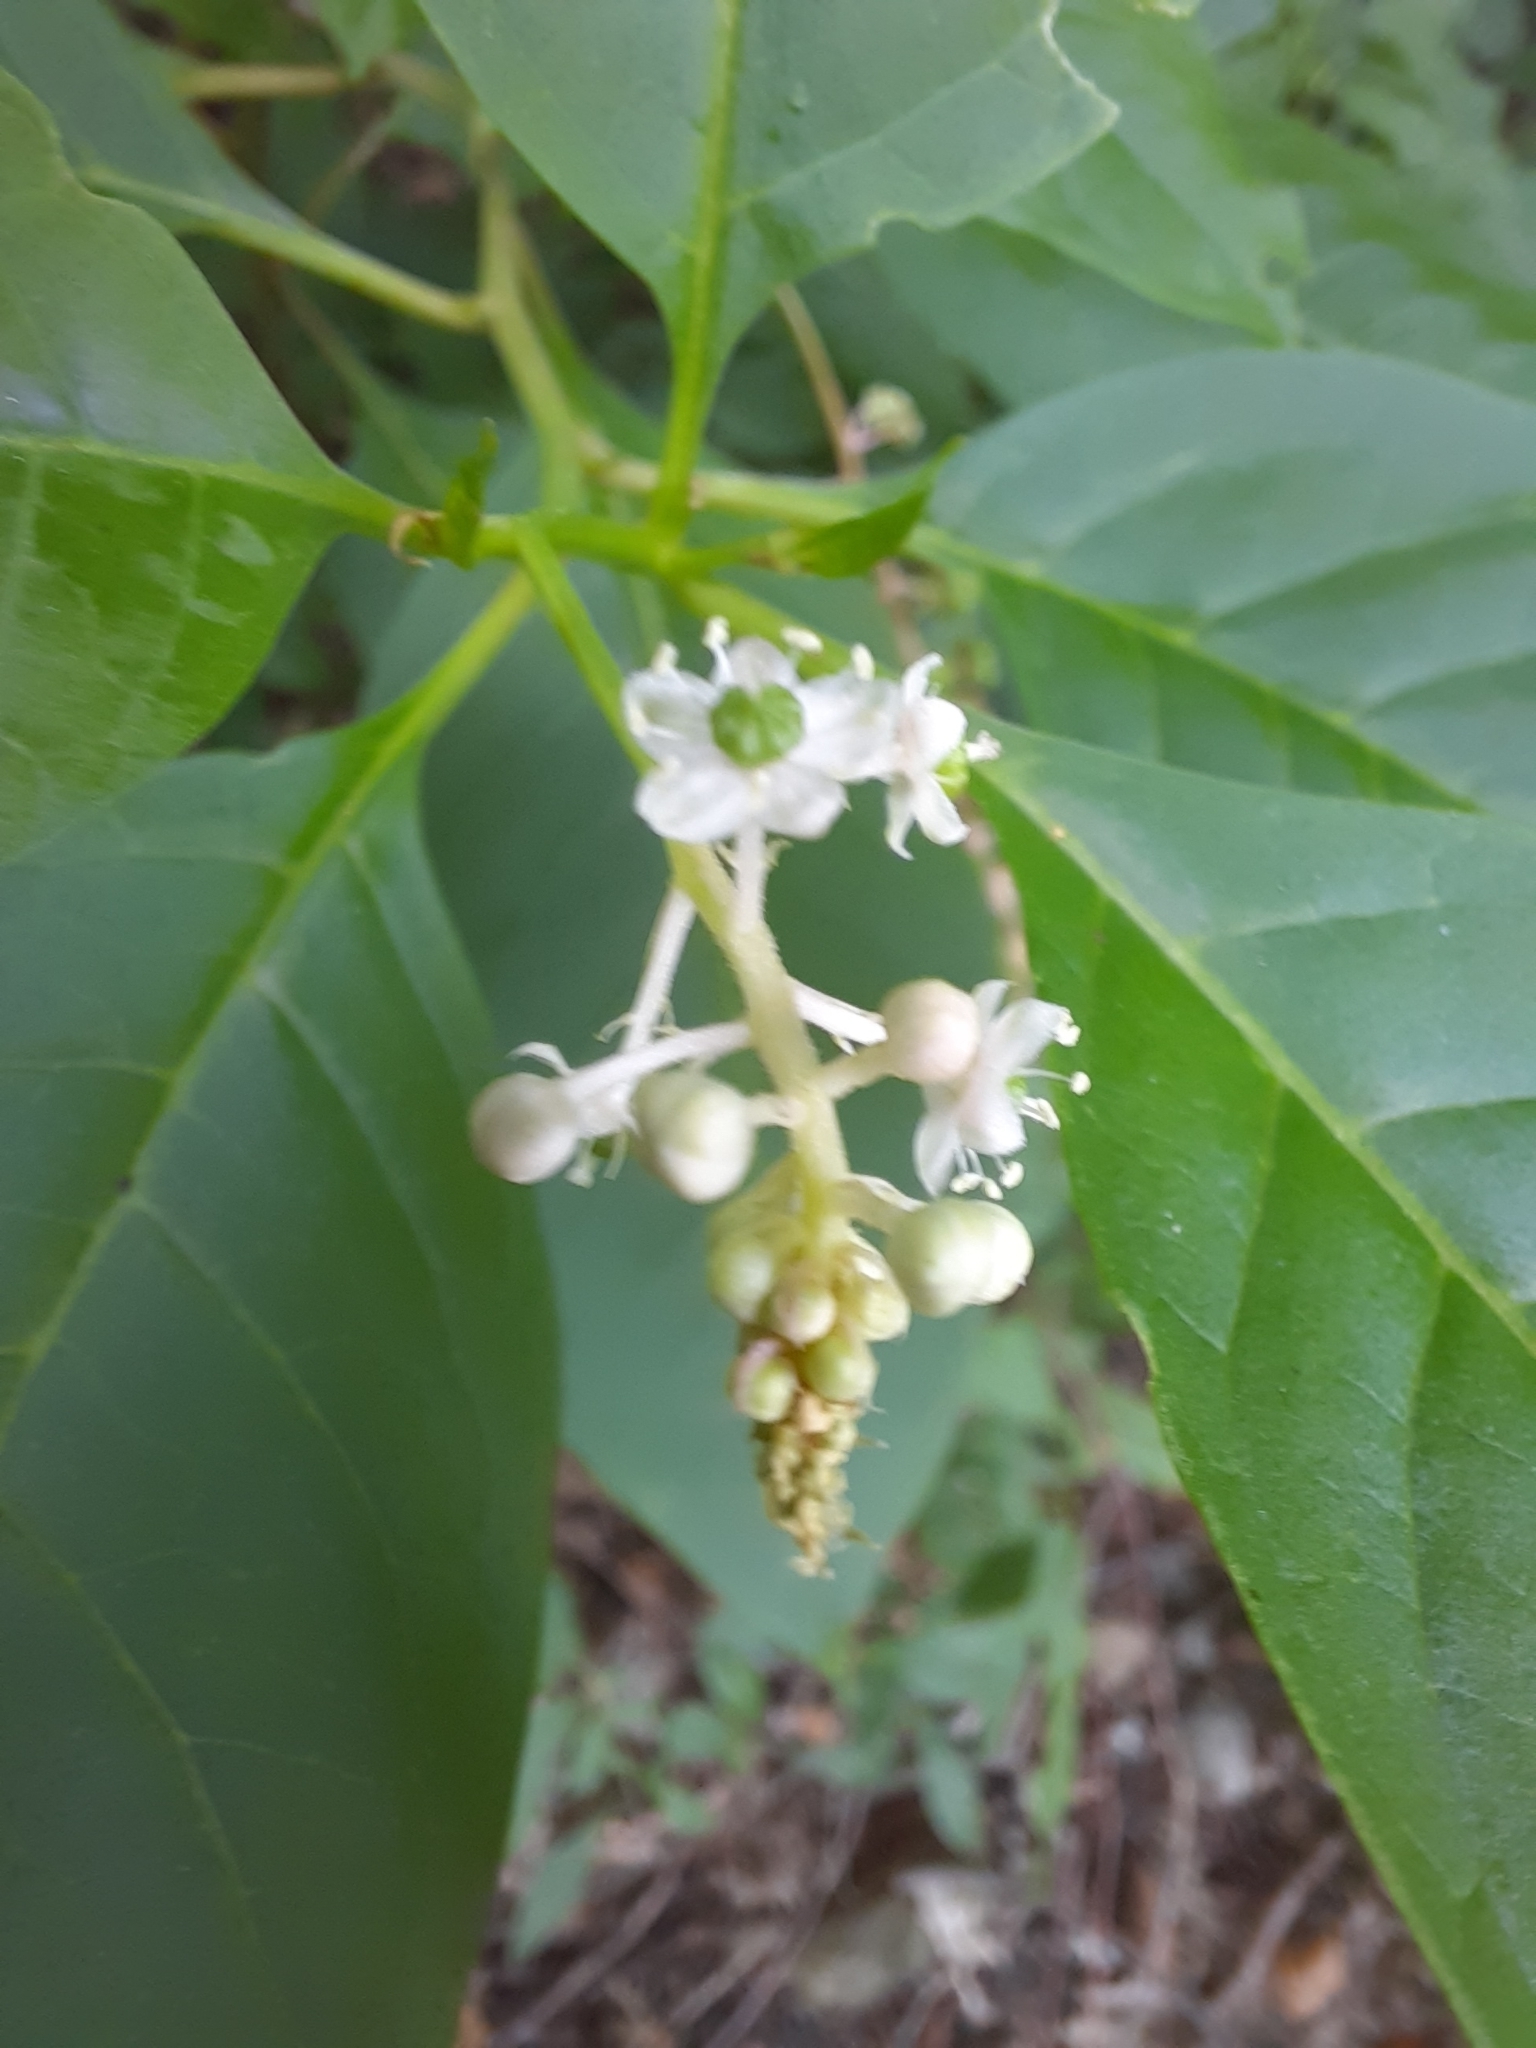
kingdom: Plantae
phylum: Tracheophyta
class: Magnoliopsida
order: Caryophyllales
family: Phytolaccaceae
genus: Phytolacca
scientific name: Phytolacca americana
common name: American pokeweed
